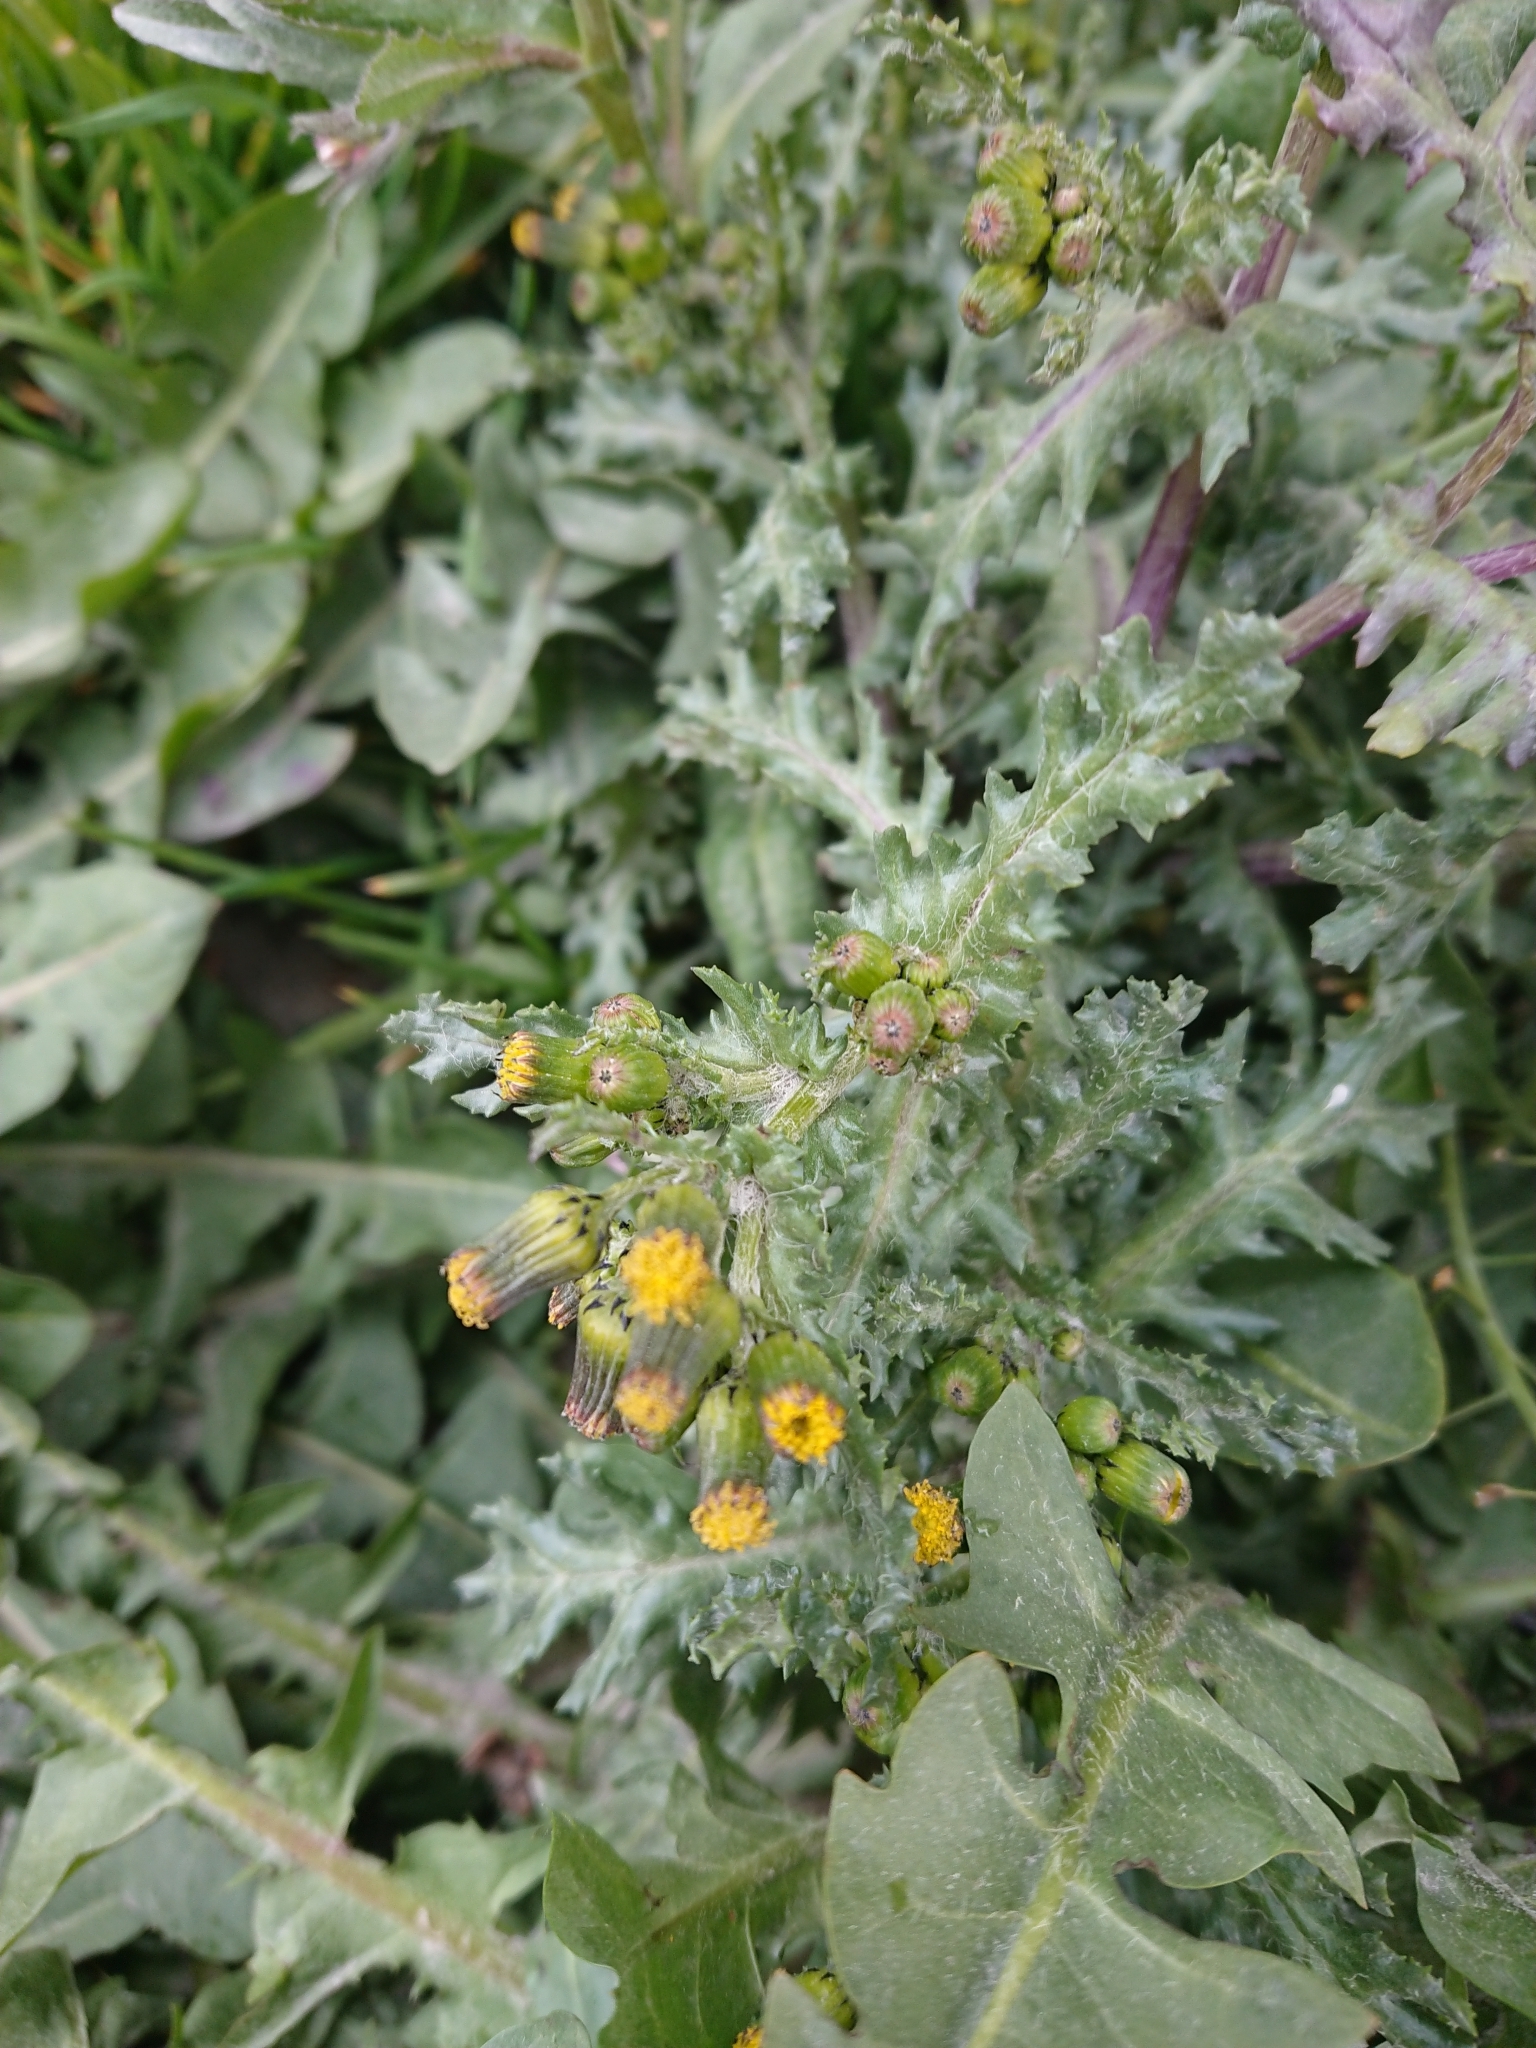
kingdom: Plantae
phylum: Tracheophyta
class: Magnoliopsida
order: Asterales
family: Asteraceae
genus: Senecio
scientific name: Senecio vulgaris
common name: Old-man-in-the-spring
